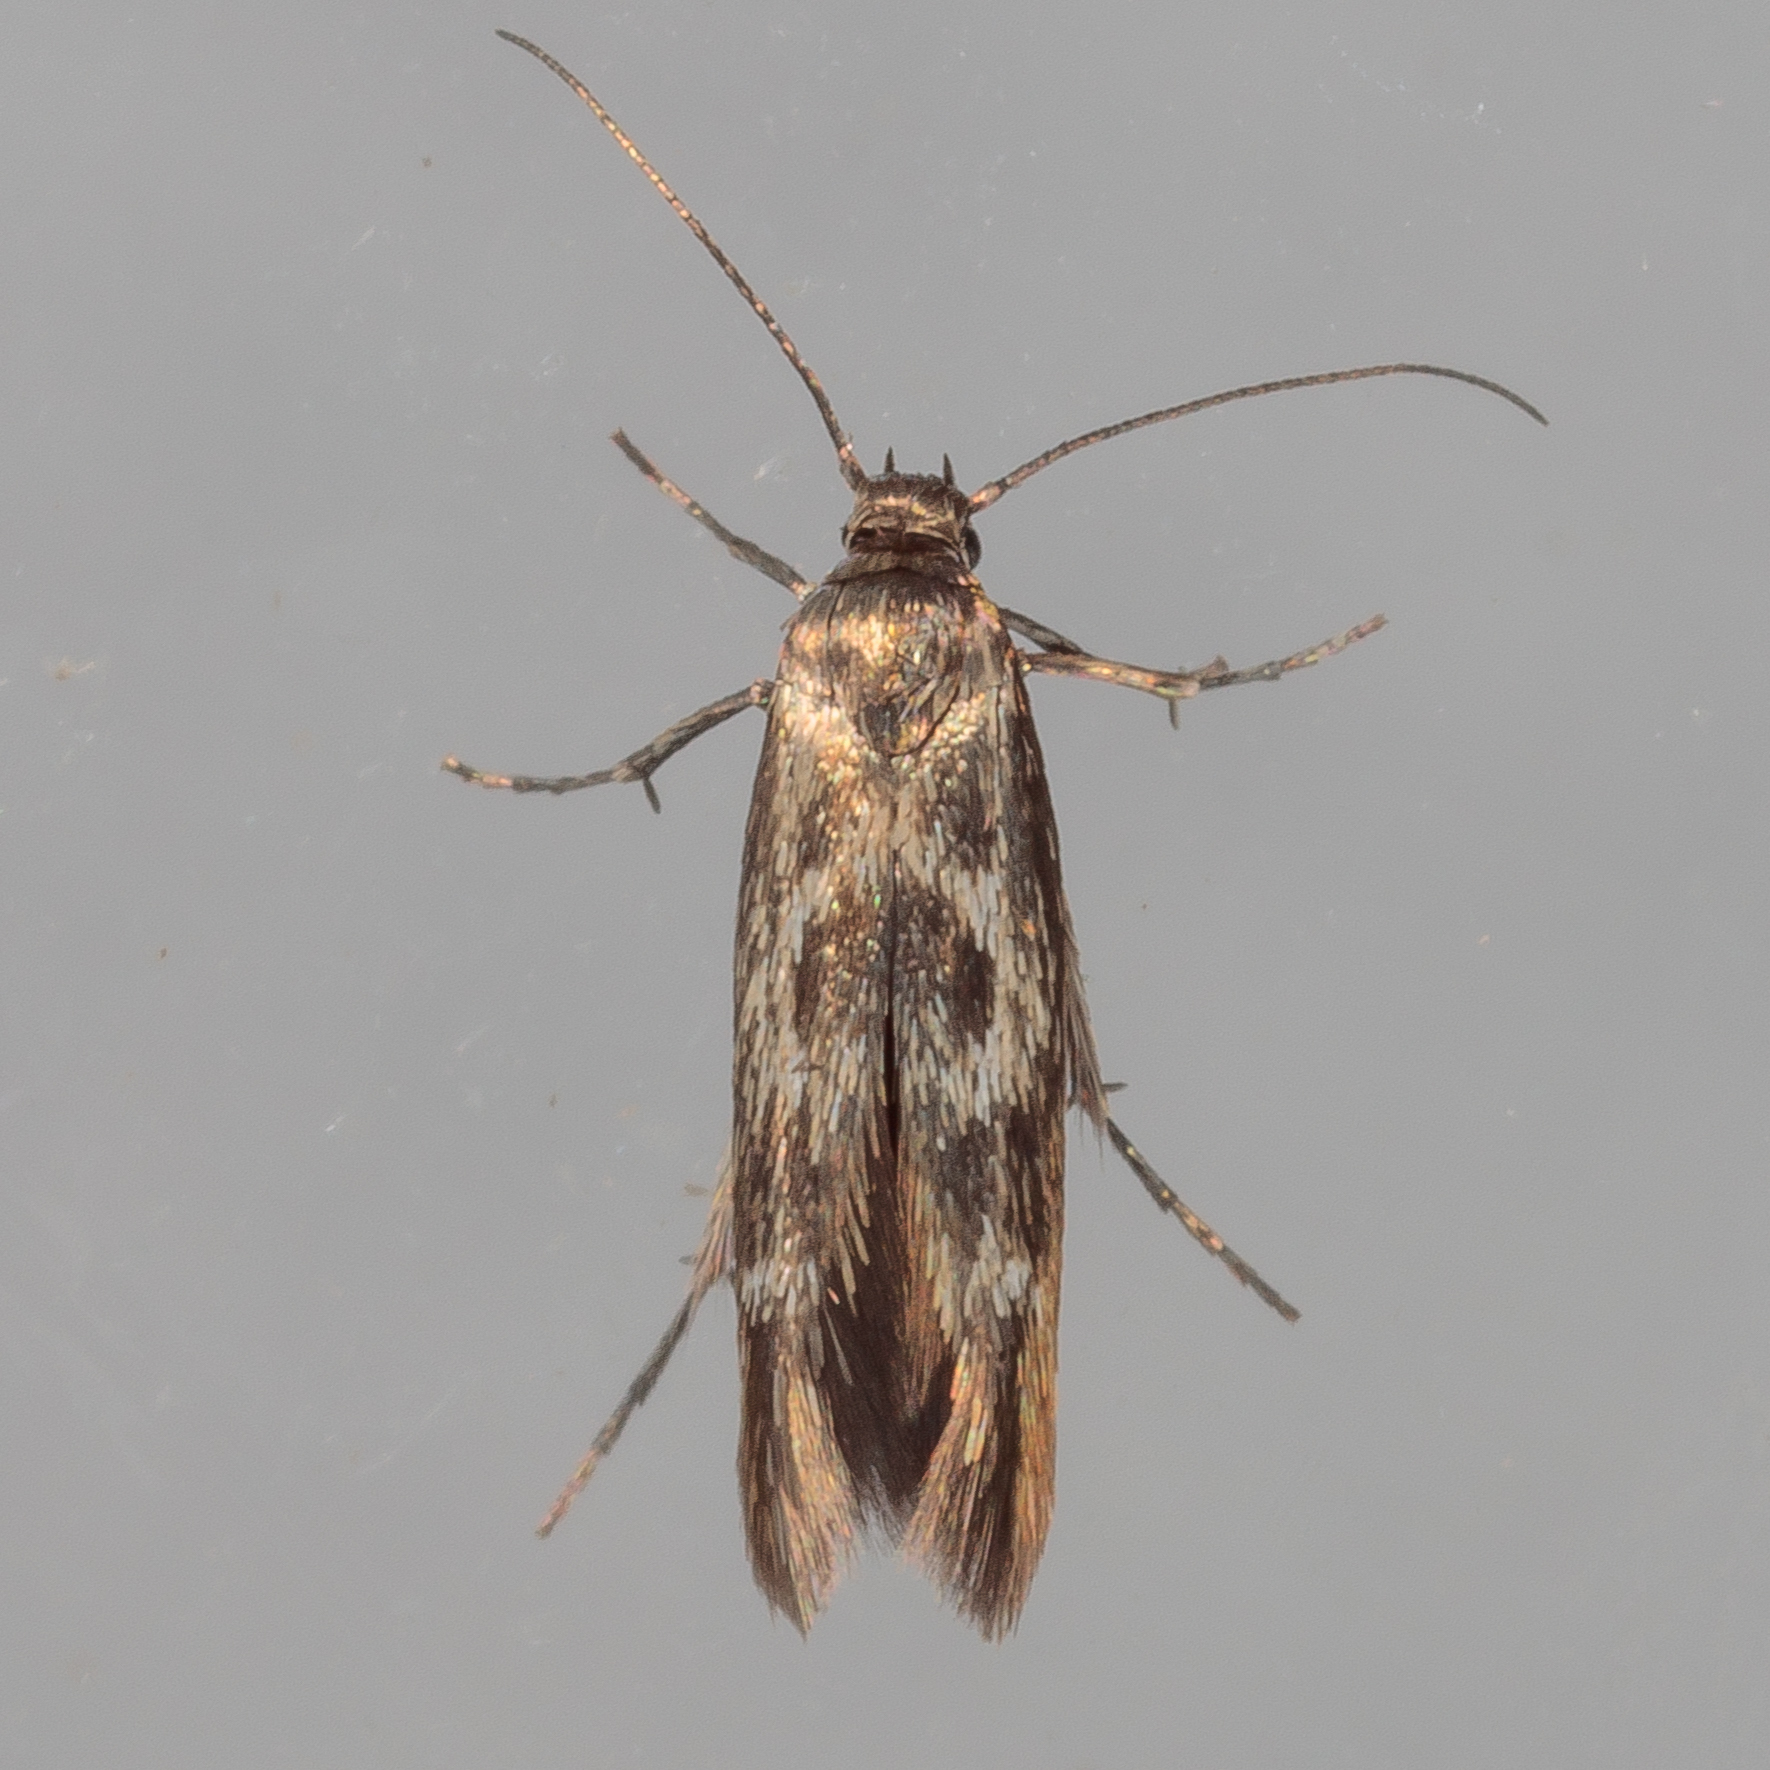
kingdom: Animalia
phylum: Arthropoda
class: Insecta
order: Lepidoptera
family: Scythrididae
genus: Scythris
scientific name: Scythris trivinctella
